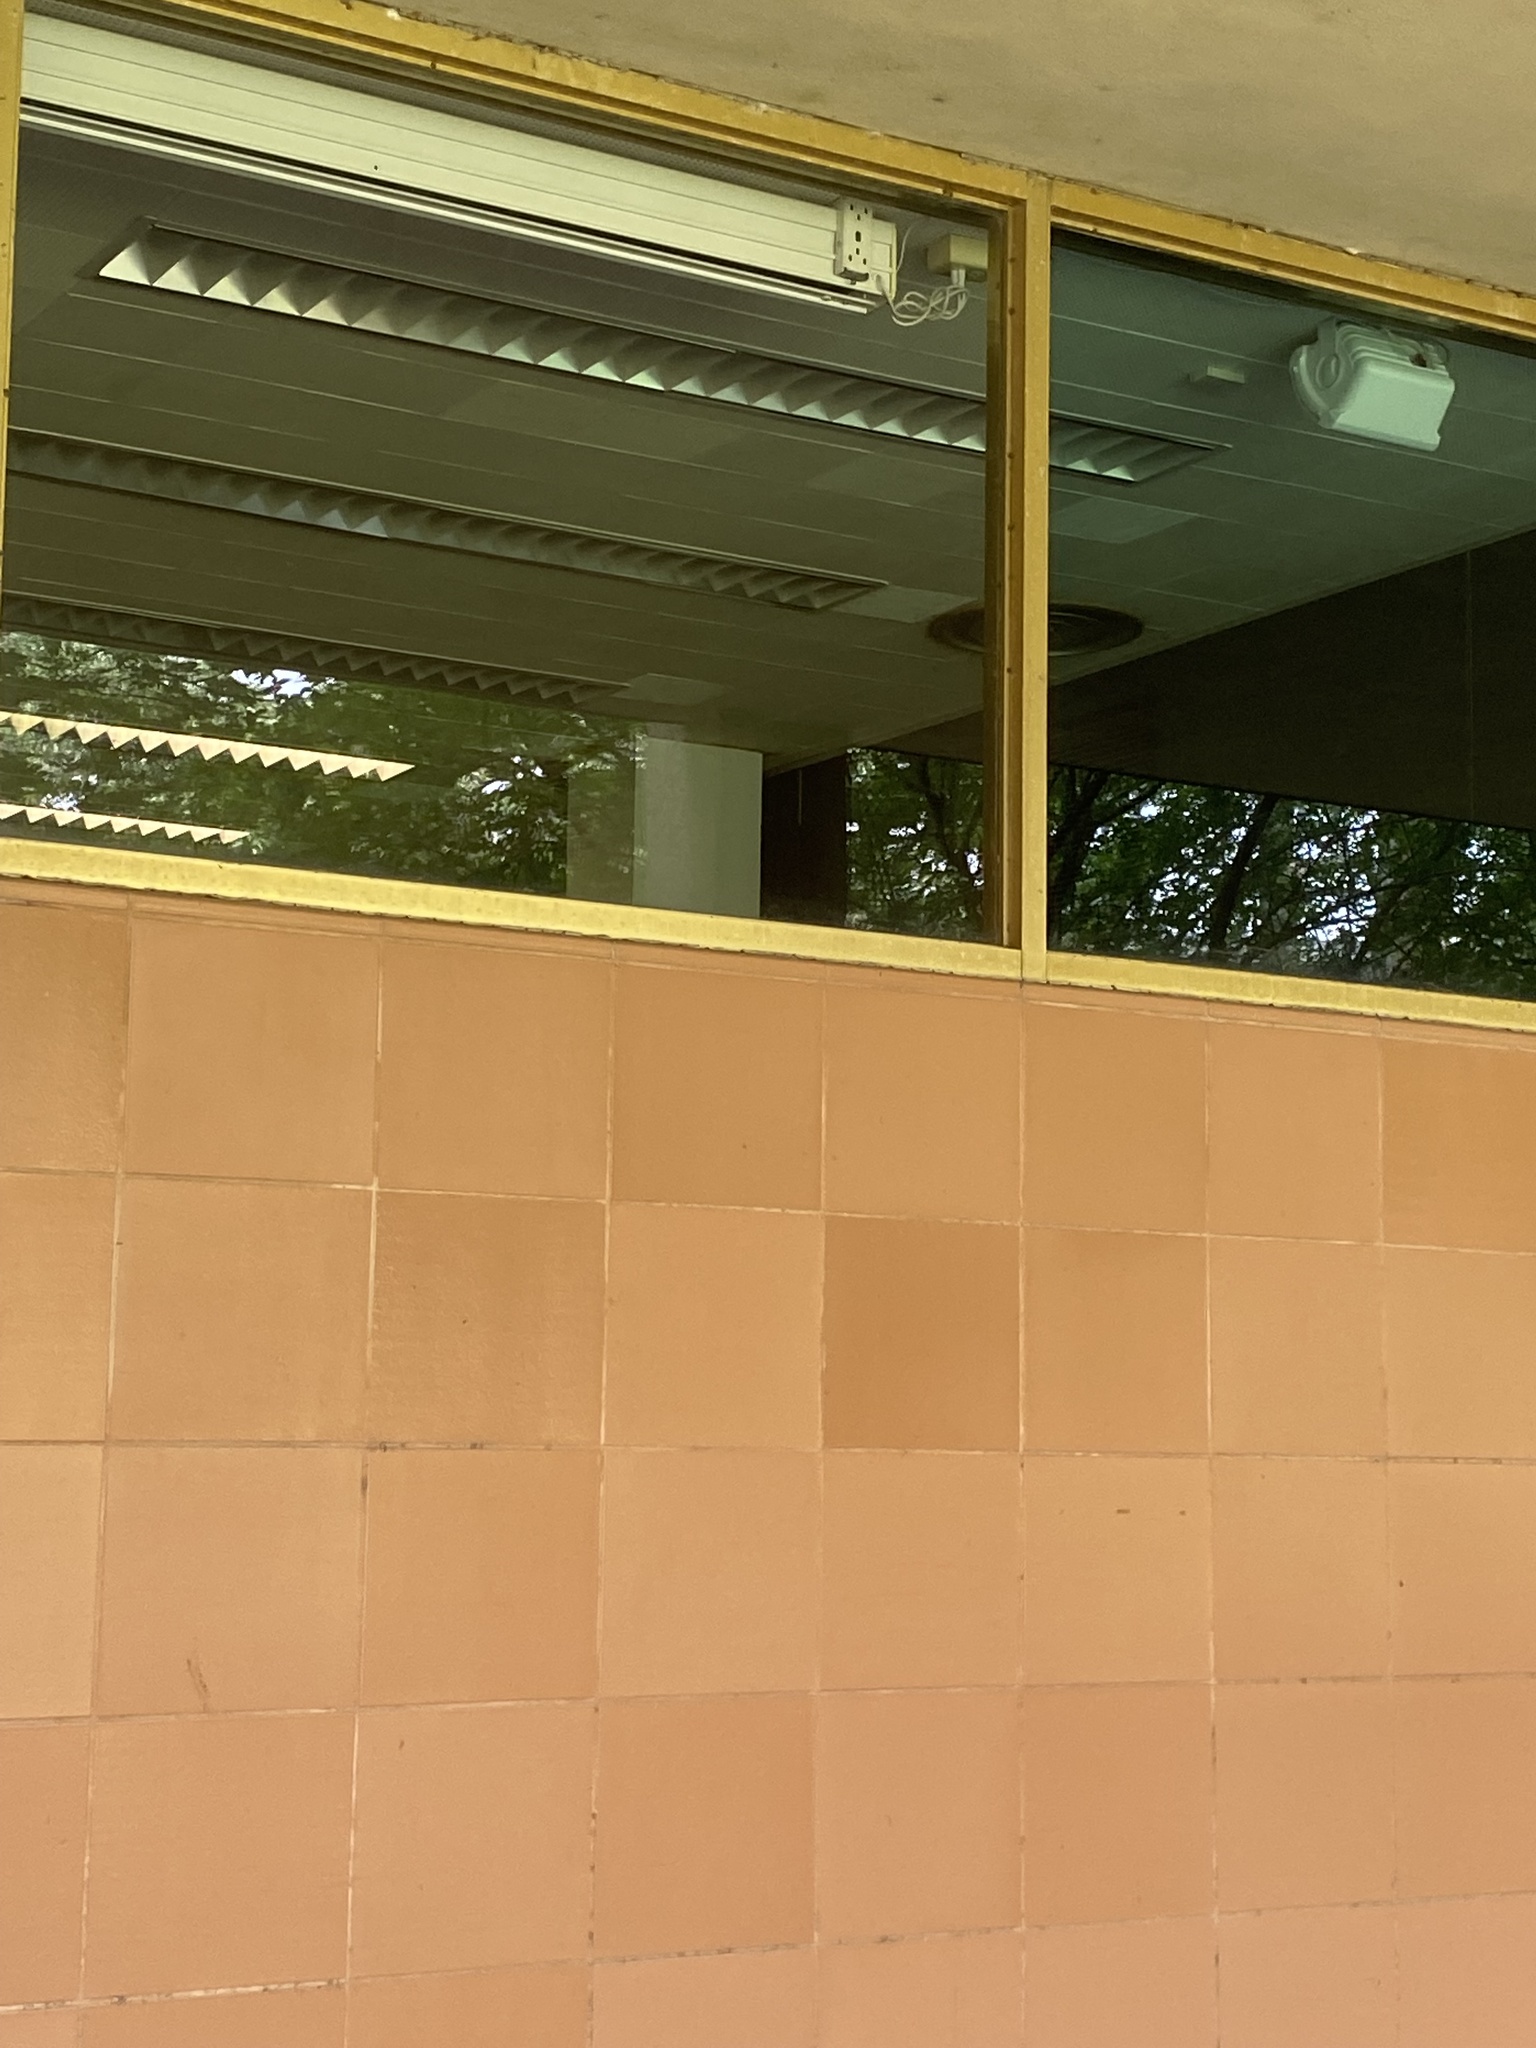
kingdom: Animalia
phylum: Chordata
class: Aves
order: Passeriformes
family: Mimidae
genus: Dumetella
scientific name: Dumetella carolinensis
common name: Gray catbird
